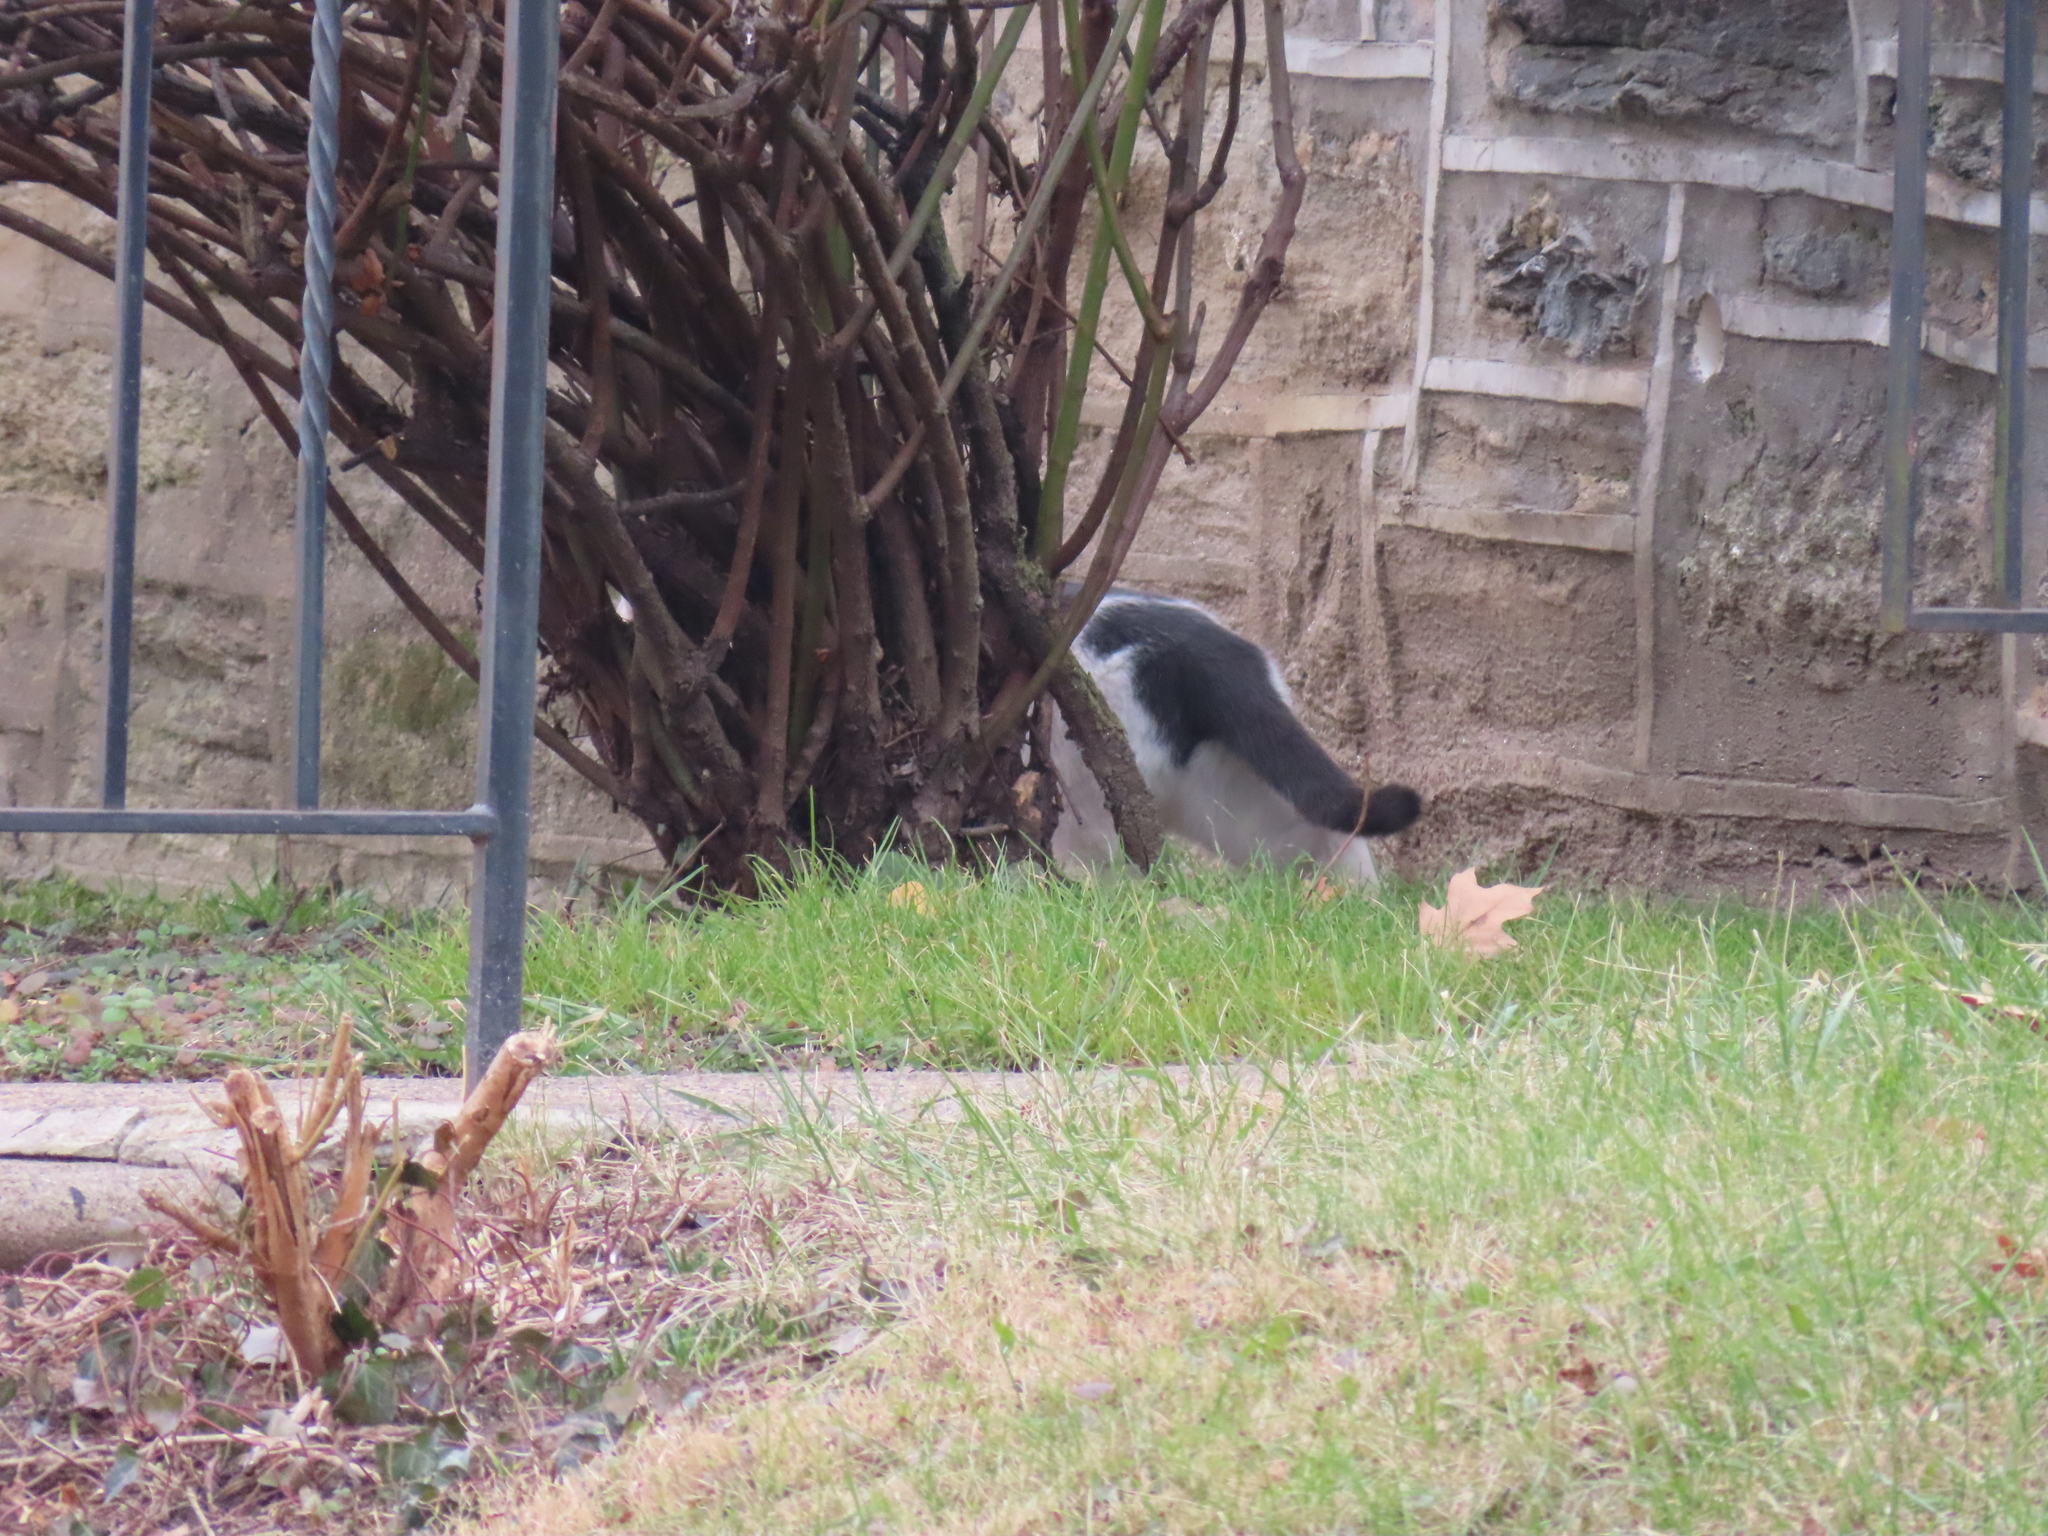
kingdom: Animalia
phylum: Chordata
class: Mammalia
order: Carnivora
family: Felidae
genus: Felis
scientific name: Felis catus
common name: Domestic cat
